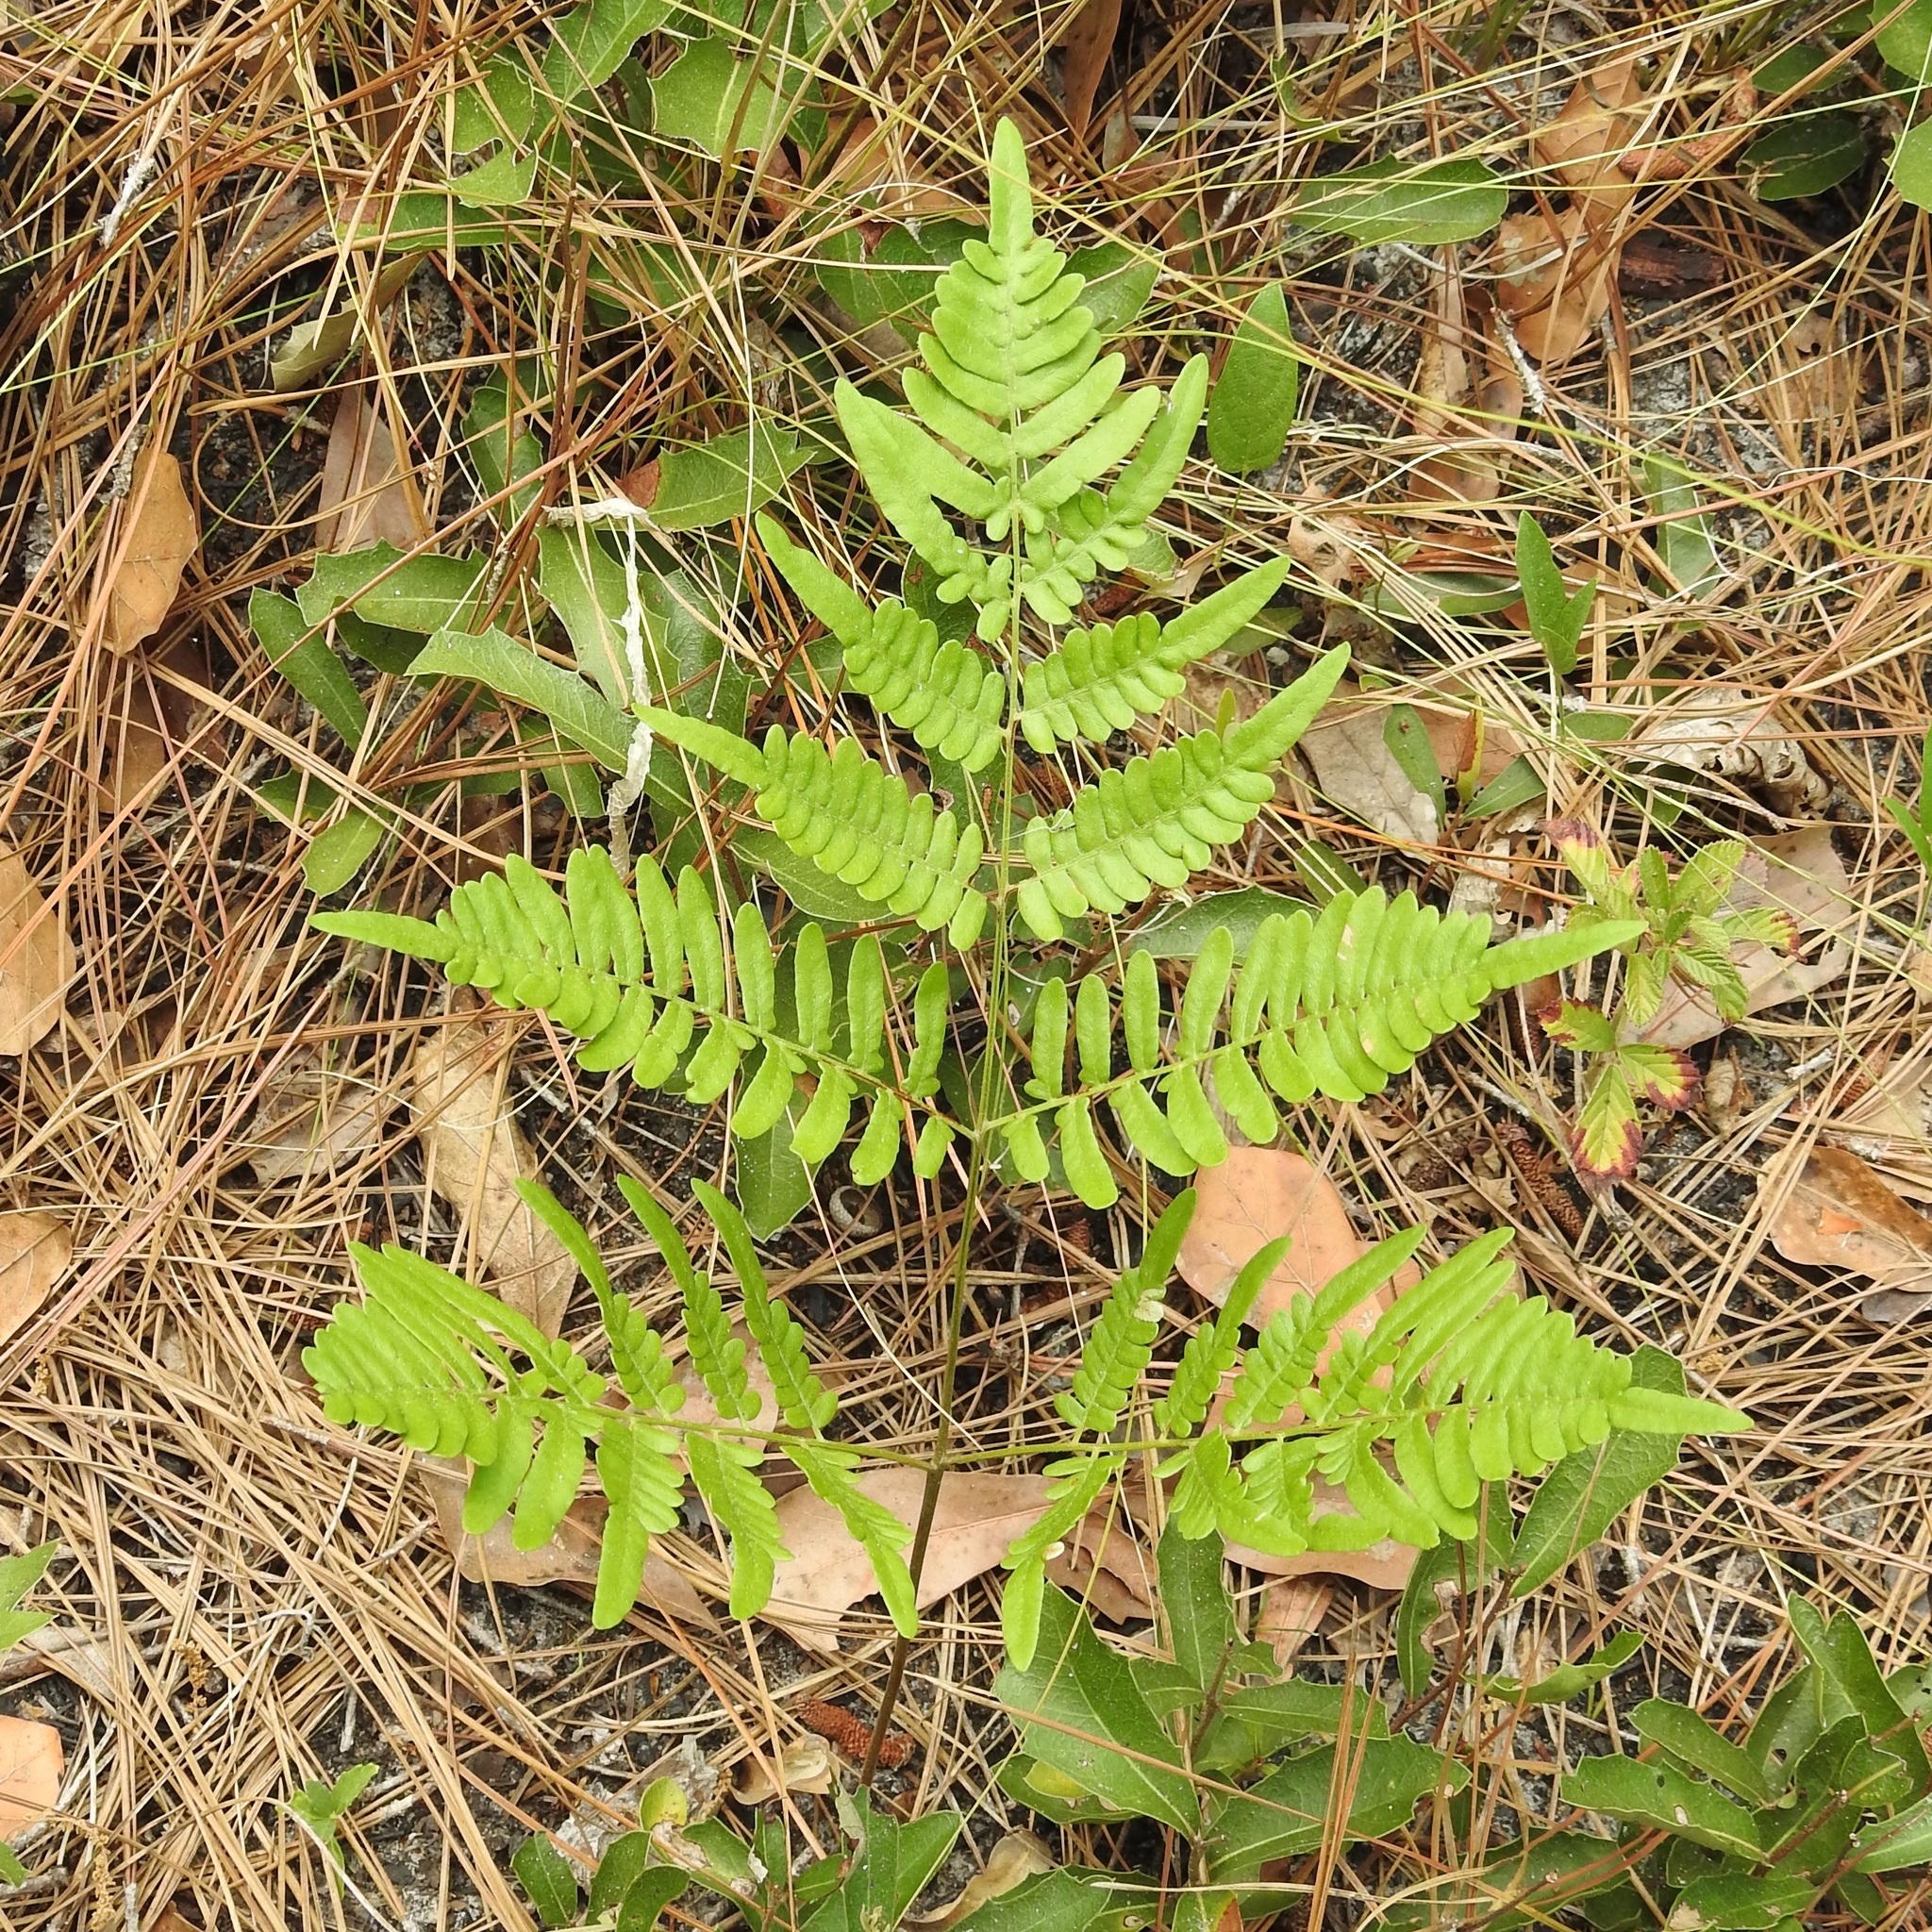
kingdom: Plantae
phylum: Tracheophyta
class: Polypodiopsida
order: Polypodiales
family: Dennstaedtiaceae
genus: Pteridium
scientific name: Pteridium aquilinum
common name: Bracken
